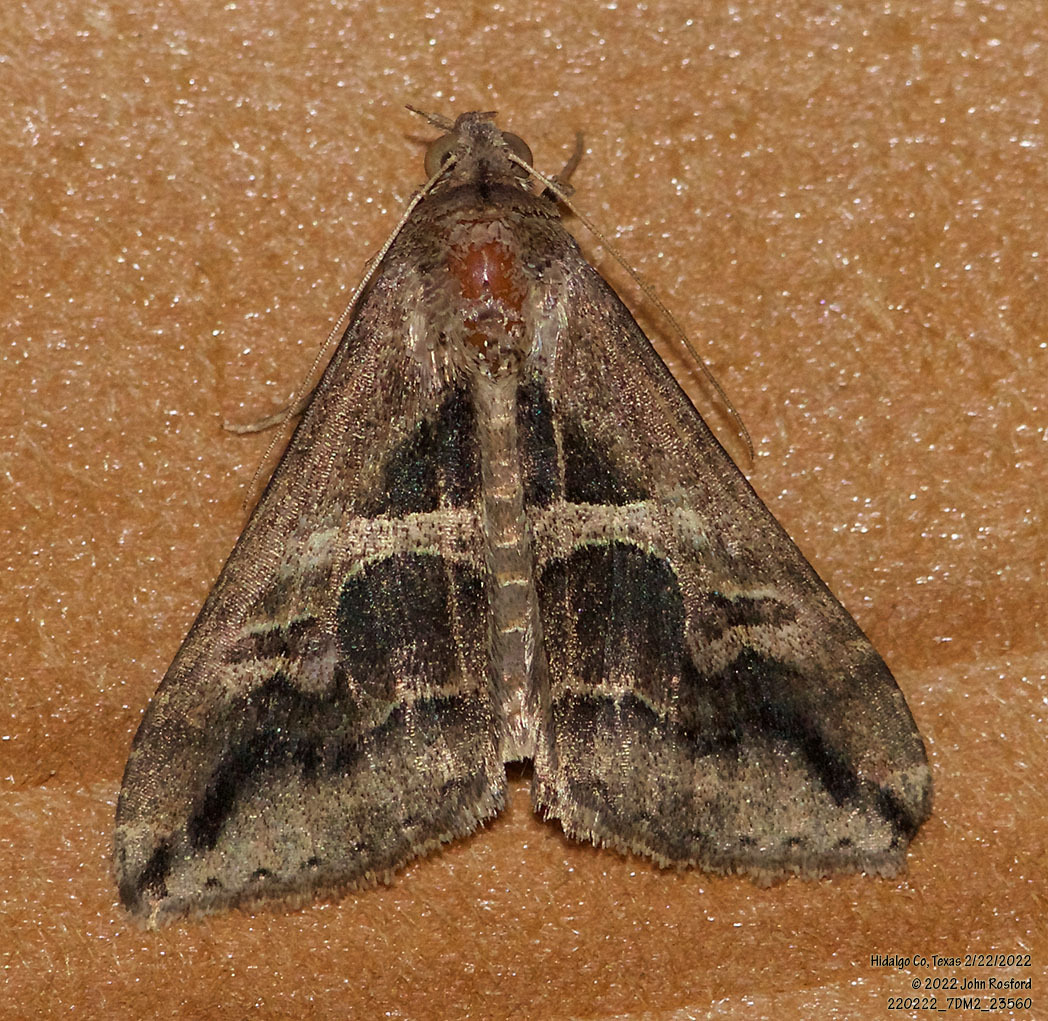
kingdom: Animalia
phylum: Arthropoda
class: Insecta
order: Lepidoptera
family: Erebidae
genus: Melipotis
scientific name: Melipotis cellaris
